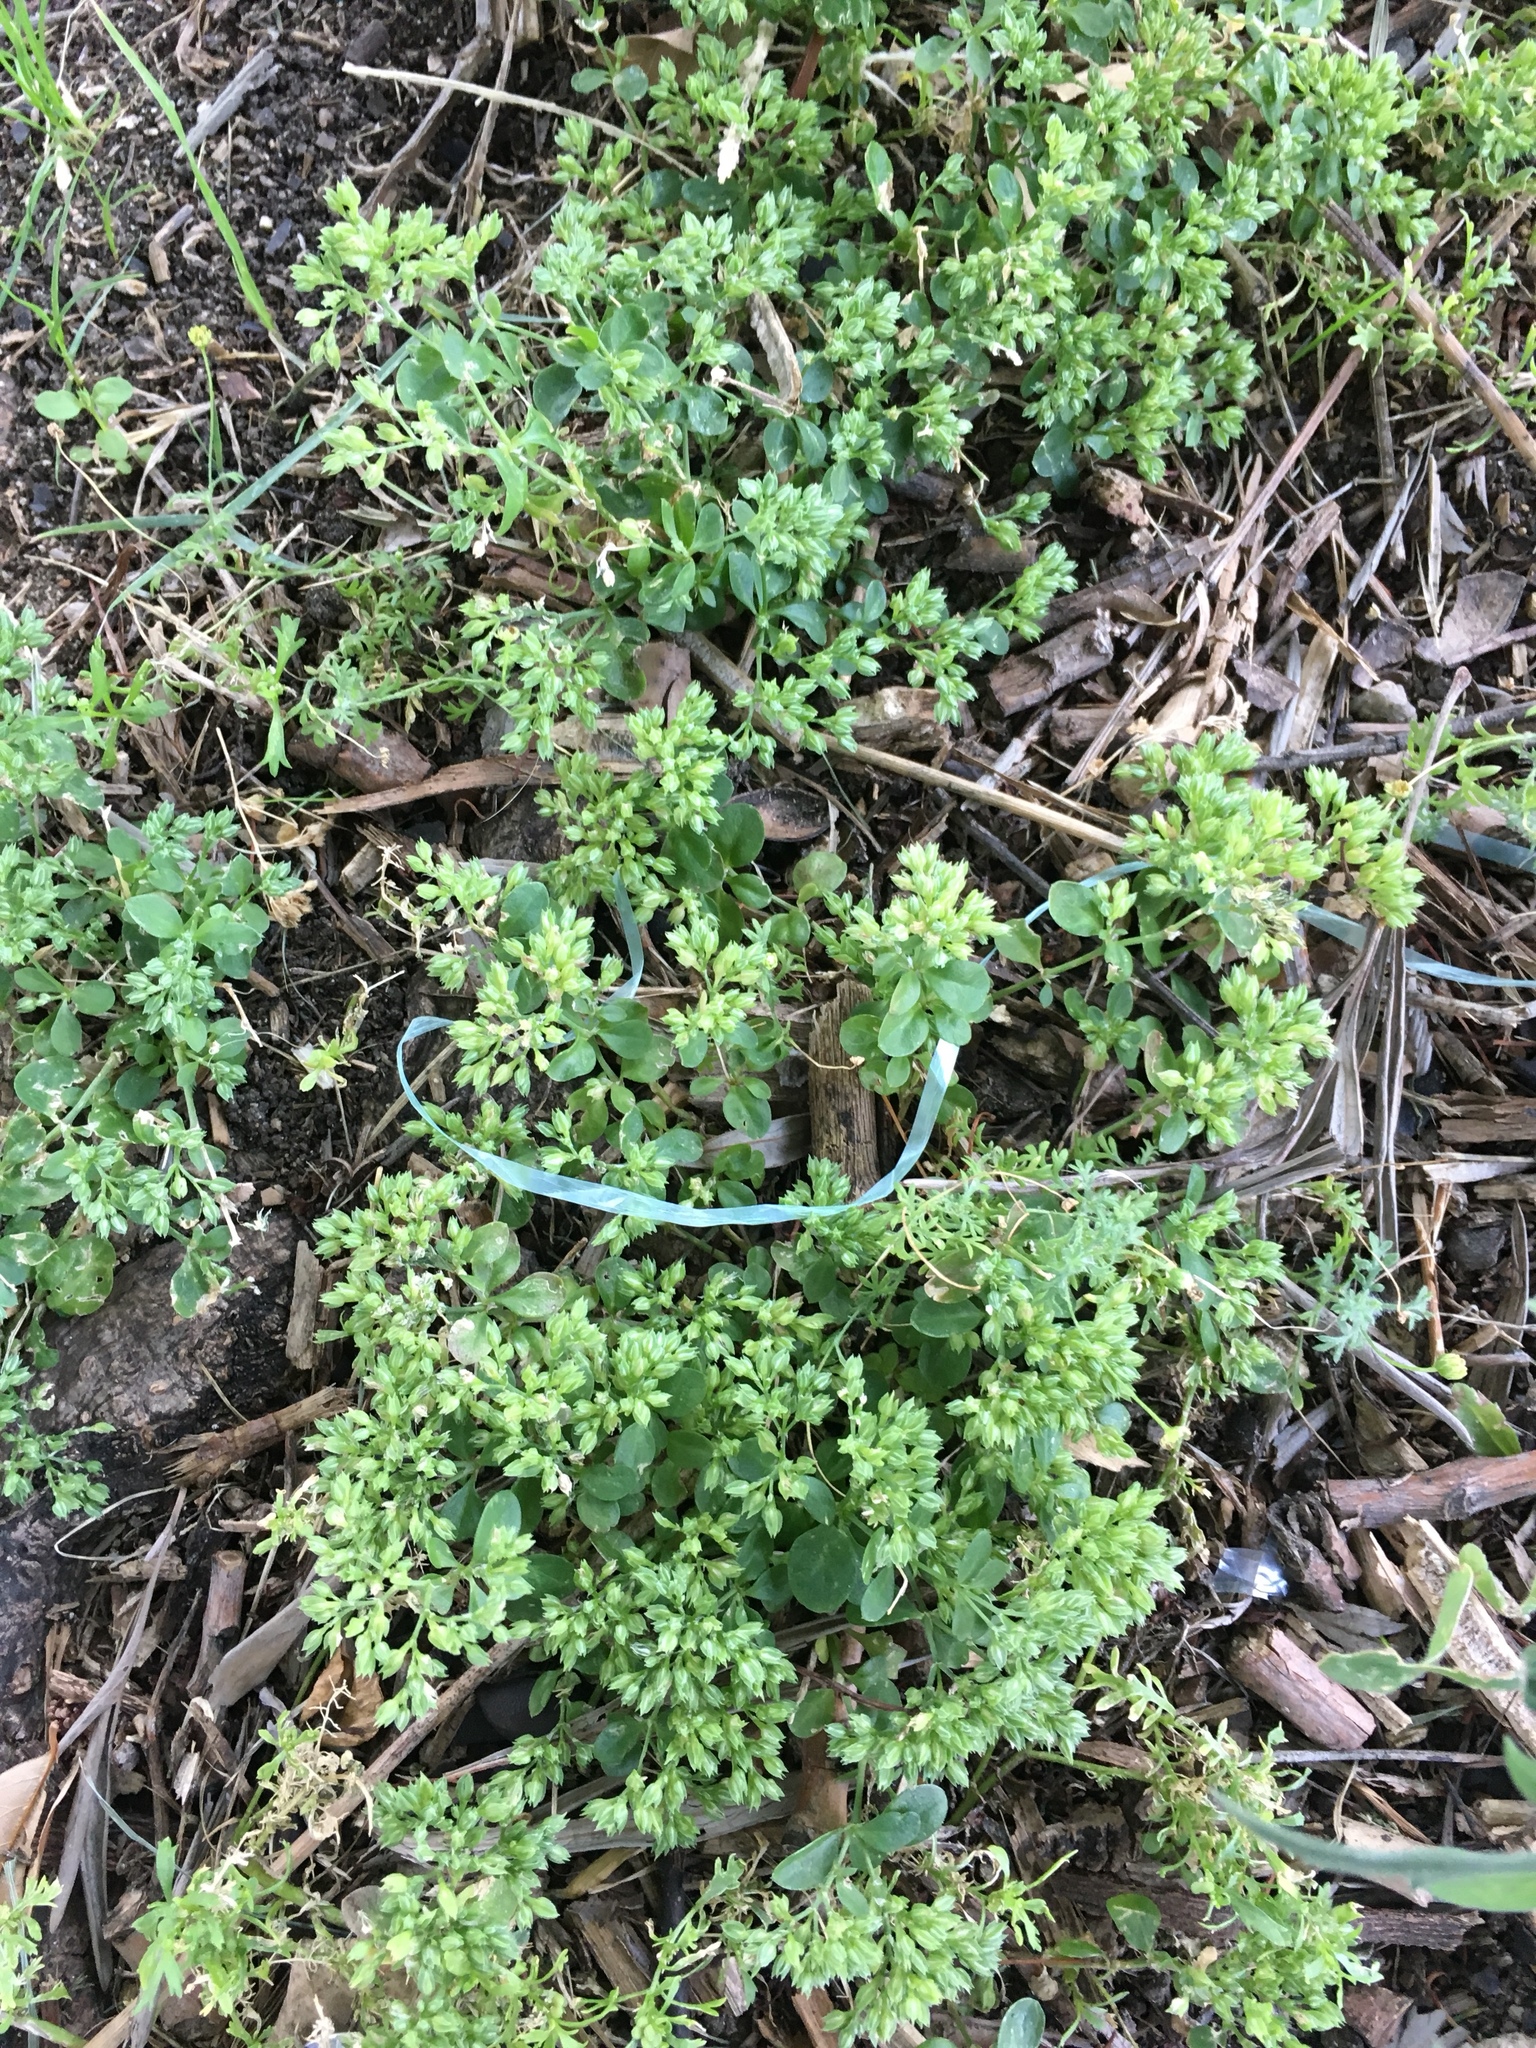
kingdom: Plantae
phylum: Tracheophyta
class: Magnoliopsida
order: Caryophyllales
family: Caryophyllaceae
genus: Polycarpon
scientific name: Polycarpon tetraphyllum
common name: Four-leaved all-seed
